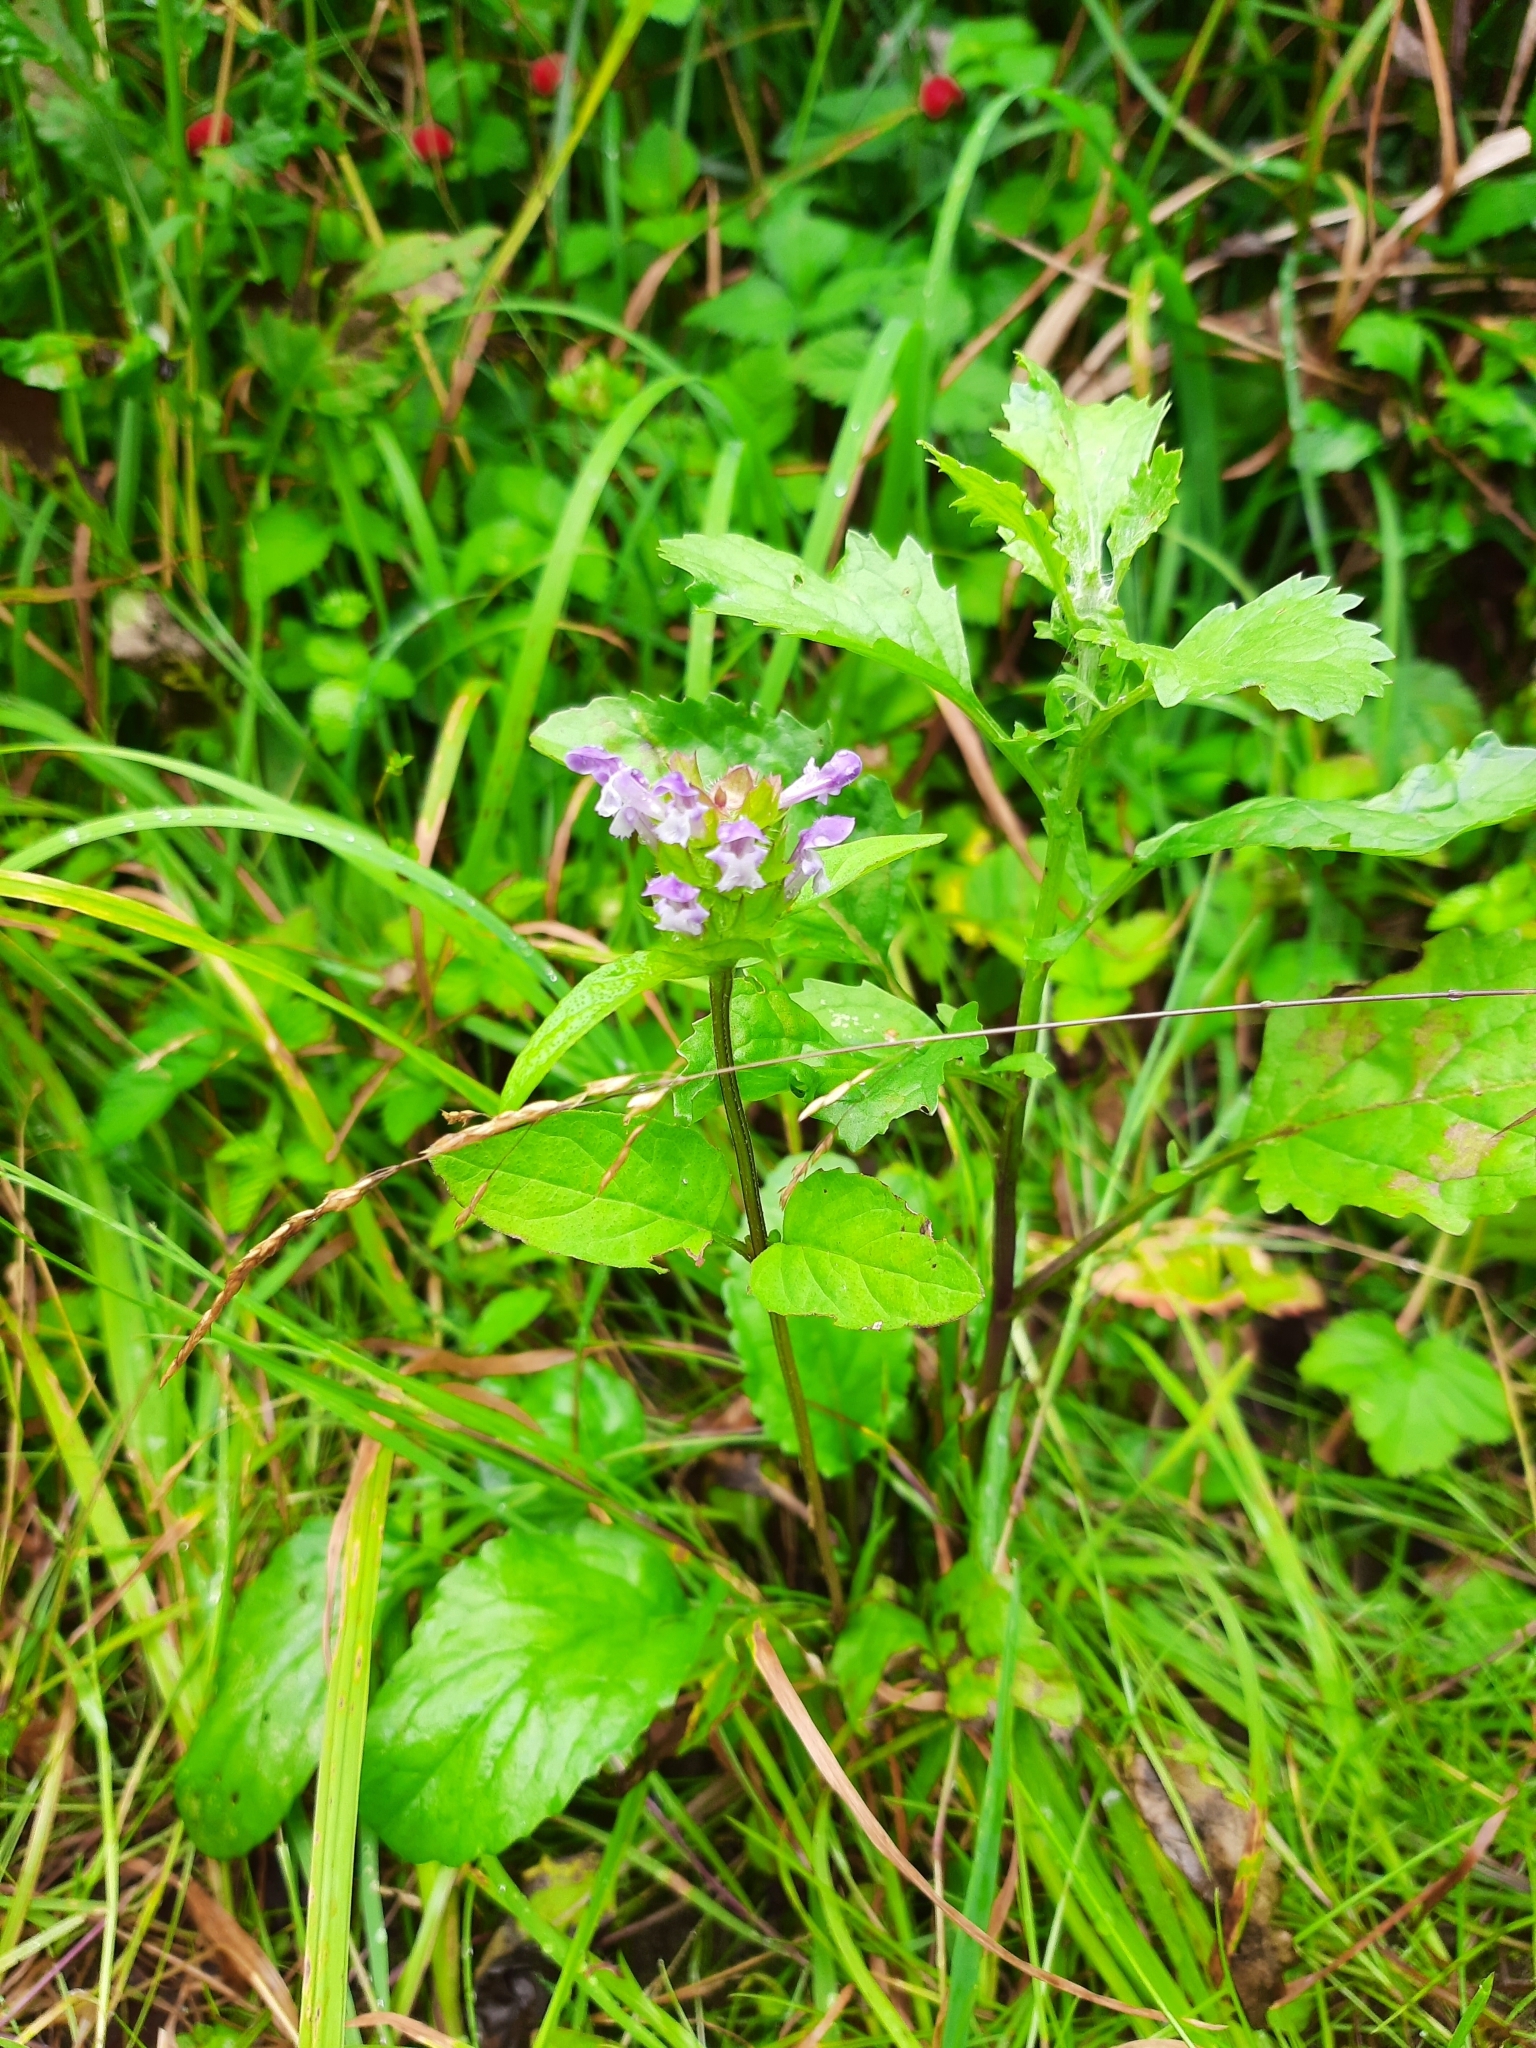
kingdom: Plantae
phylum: Tracheophyta
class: Magnoliopsida
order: Lamiales
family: Lamiaceae
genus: Prunella
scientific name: Prunella
